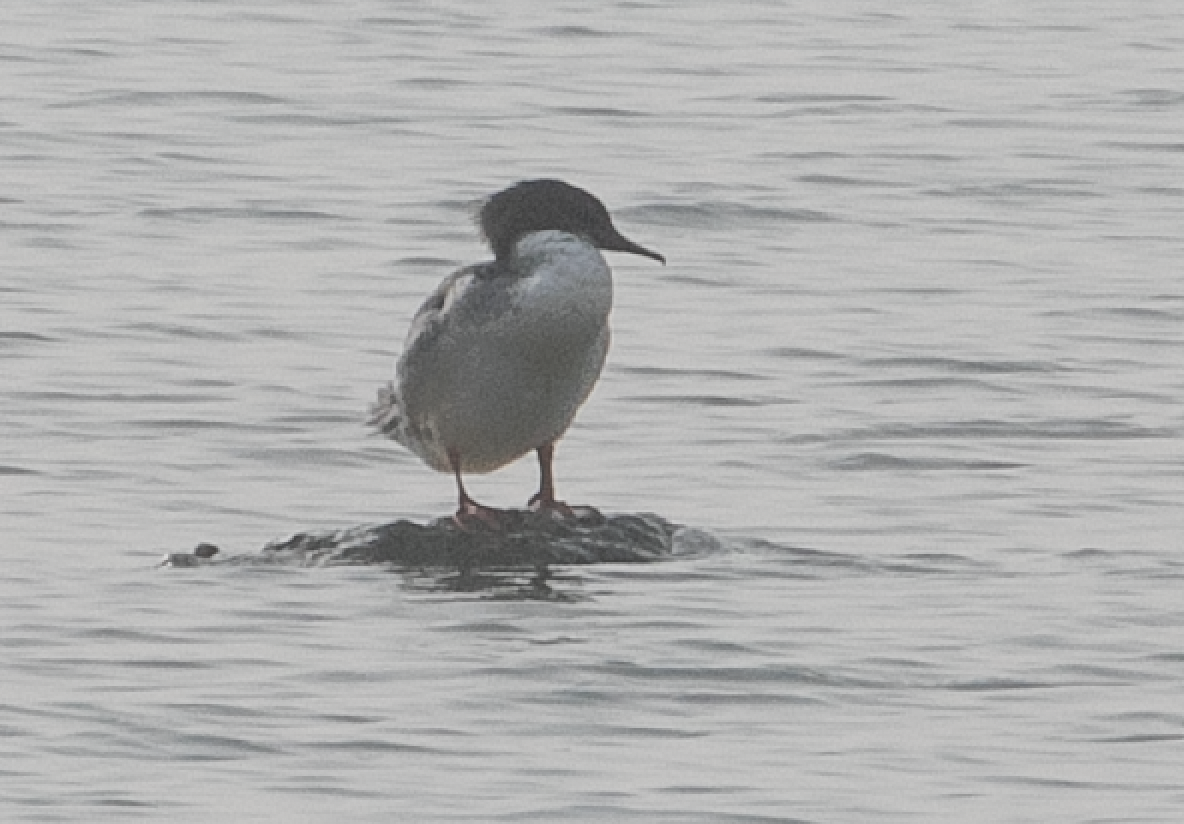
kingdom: Animalia
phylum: Chordata
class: Aves
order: Anseriformes
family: Anatidae
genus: Mergus
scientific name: Mergus merganser
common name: Common merganser
